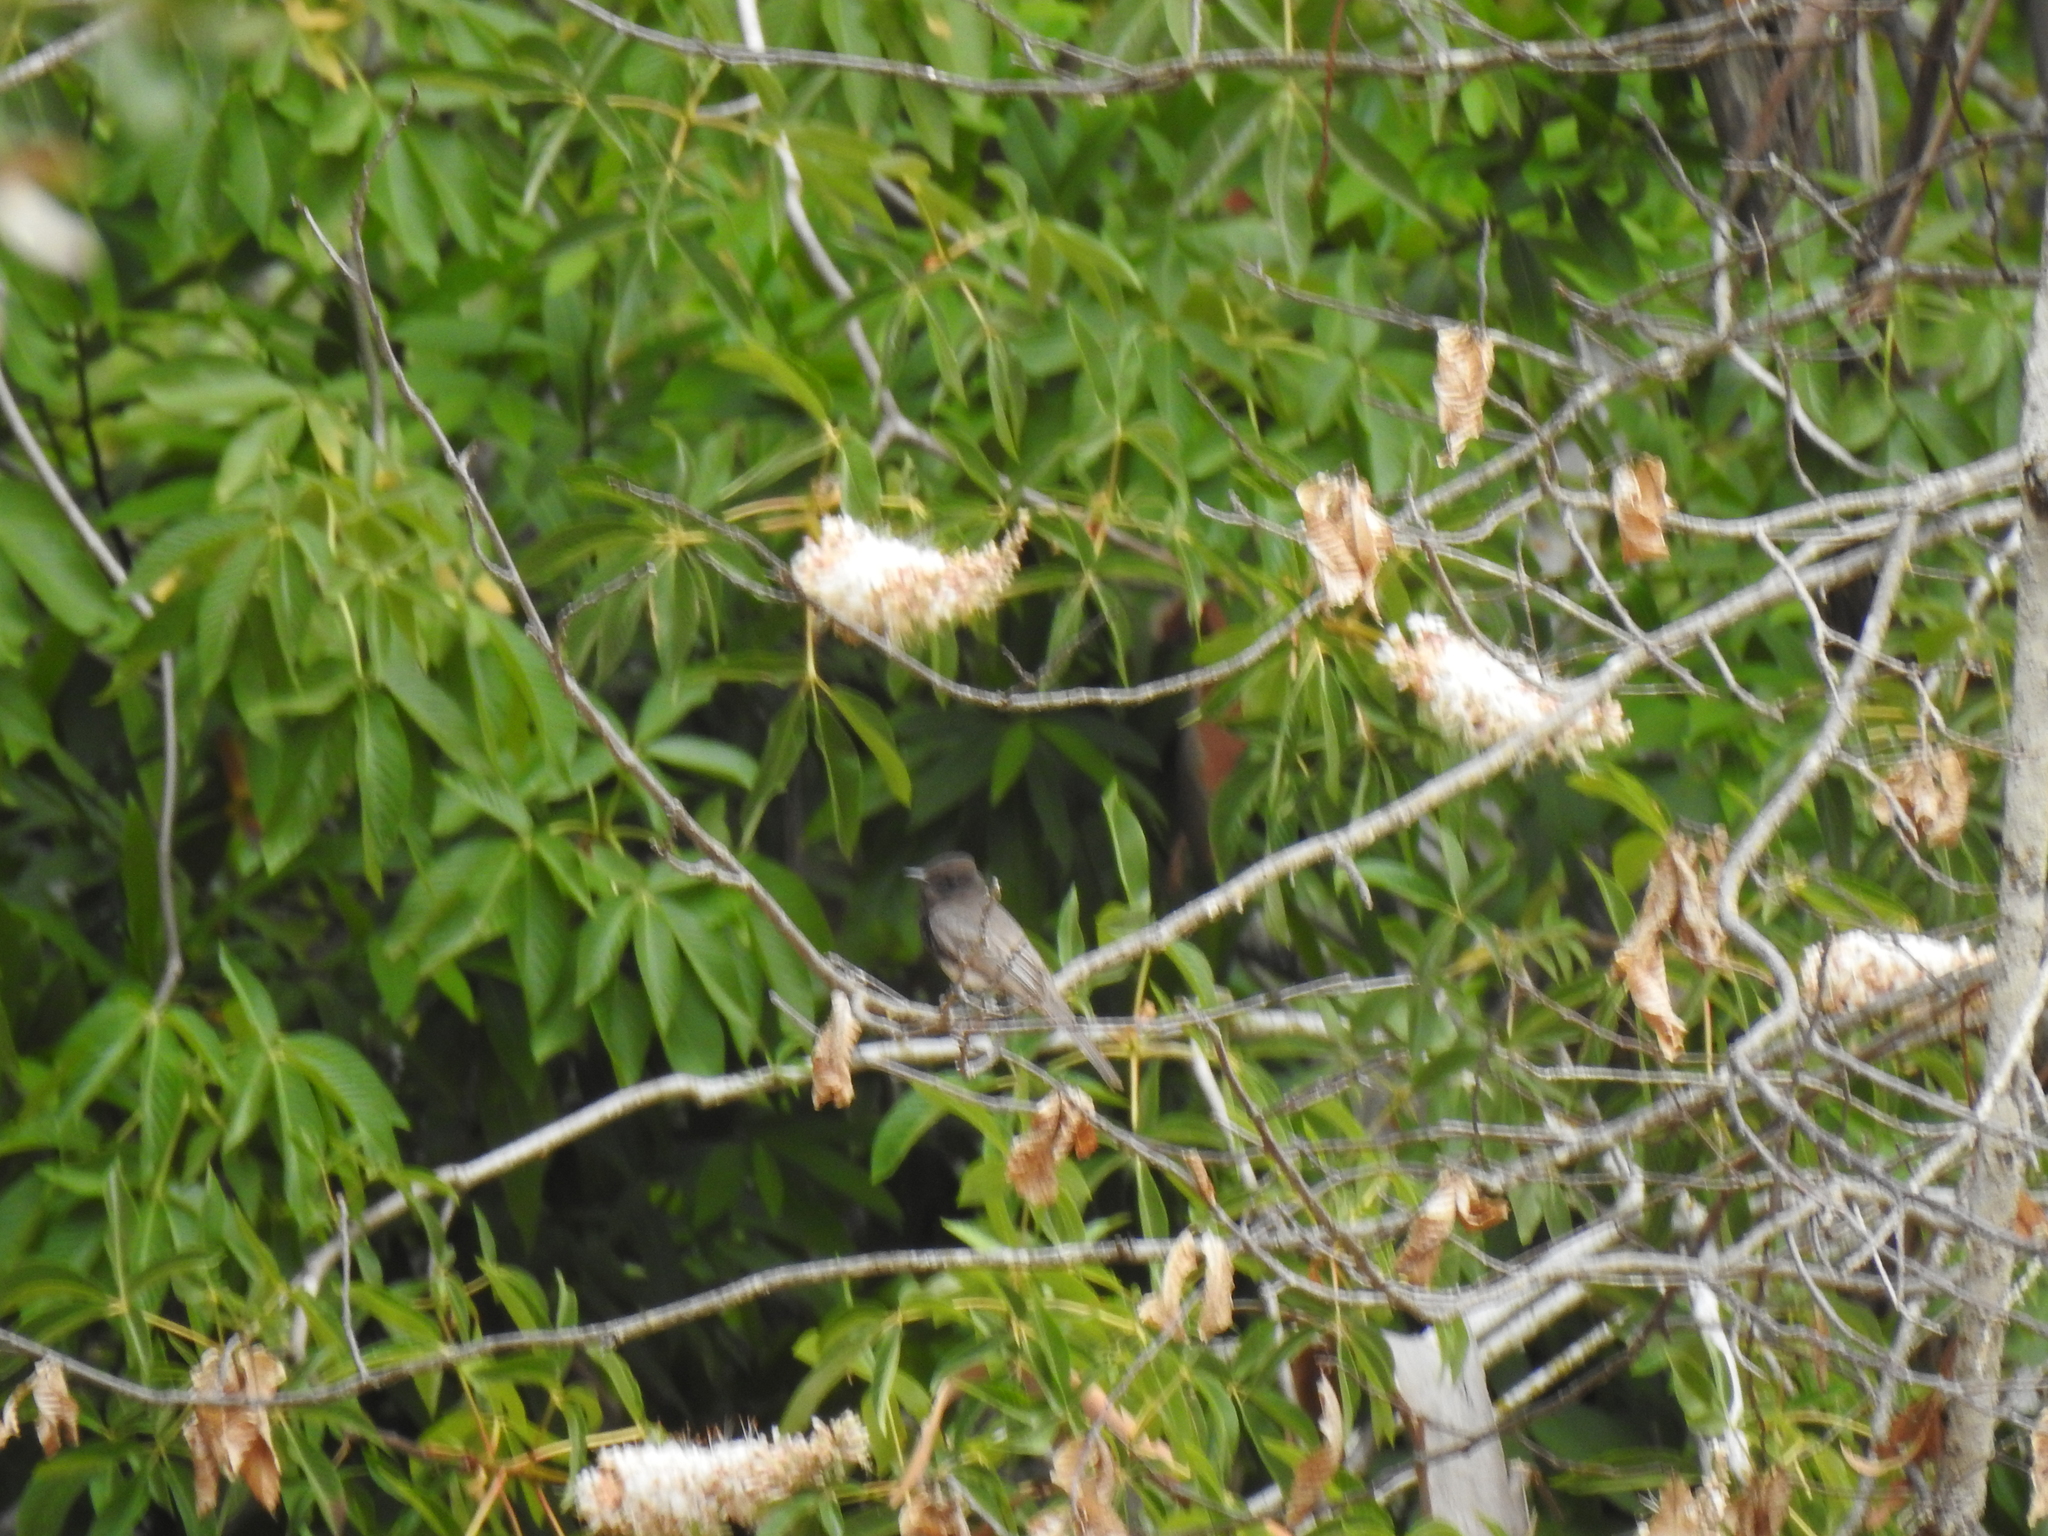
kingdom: Animalia
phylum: Chordata
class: Aves
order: Passeriformes
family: Tyrannidae
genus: Sayornis
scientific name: Sayornis nigricans
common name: Black phoebe
